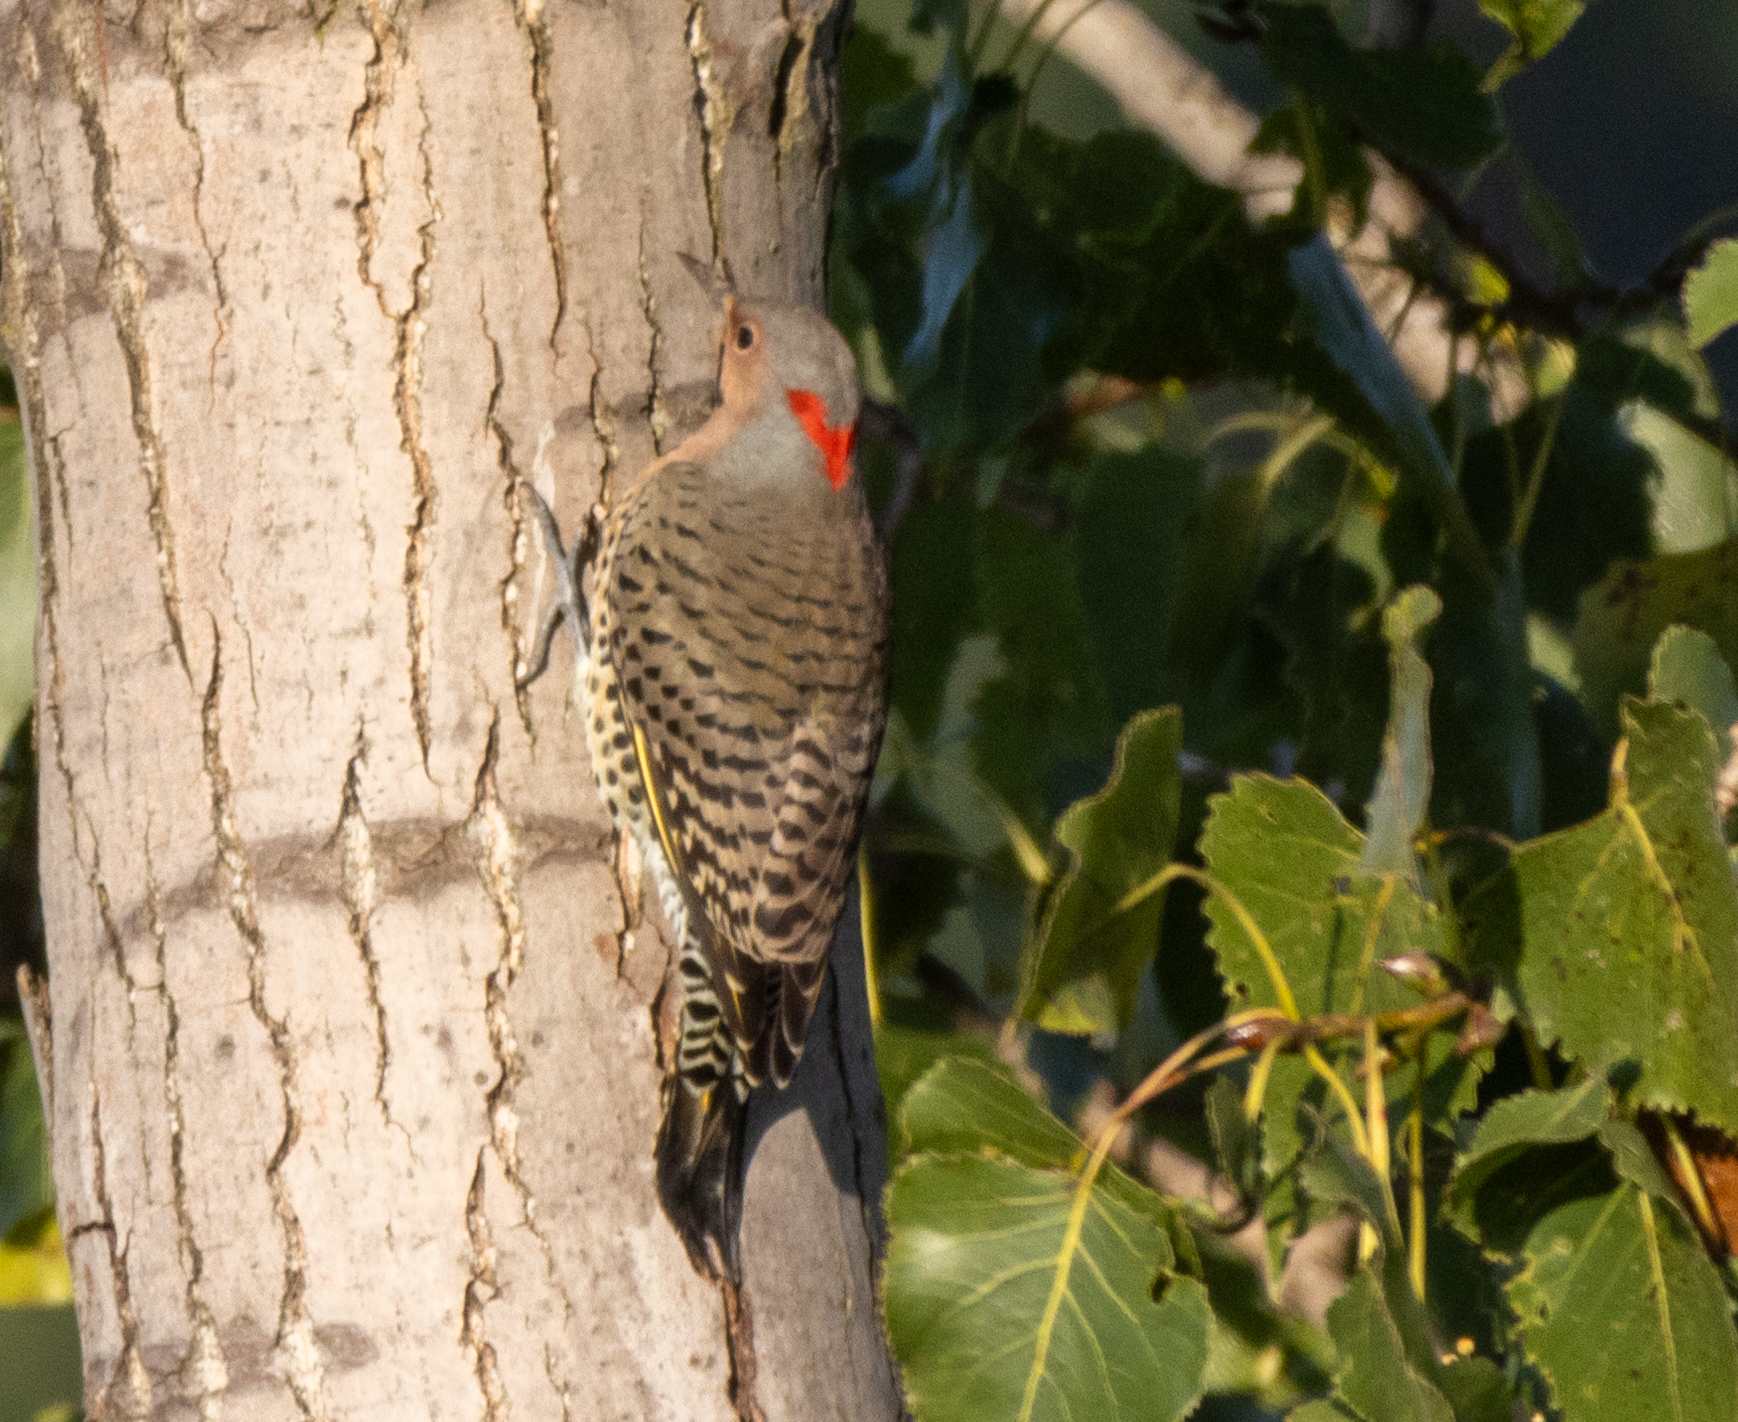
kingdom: Animalia
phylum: Chordata
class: Aves
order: Piciformes
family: Picidae
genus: Colaptes
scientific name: Colaptes auratus
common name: Northern flicker
